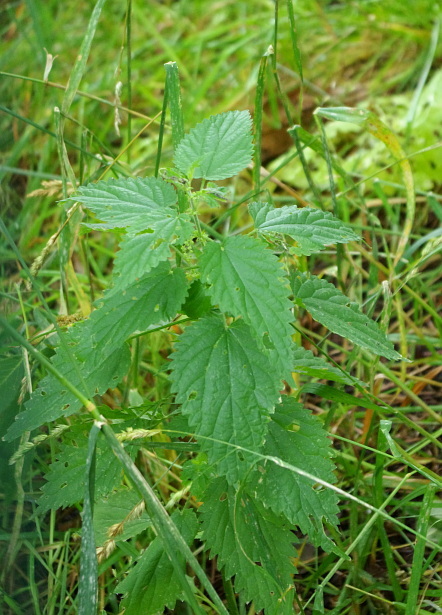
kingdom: Plantae
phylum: Tracheophyta
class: Magnoliopsida
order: Rosales
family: Urticaceae
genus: Urtica
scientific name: Urtica dioica
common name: Common nettle
